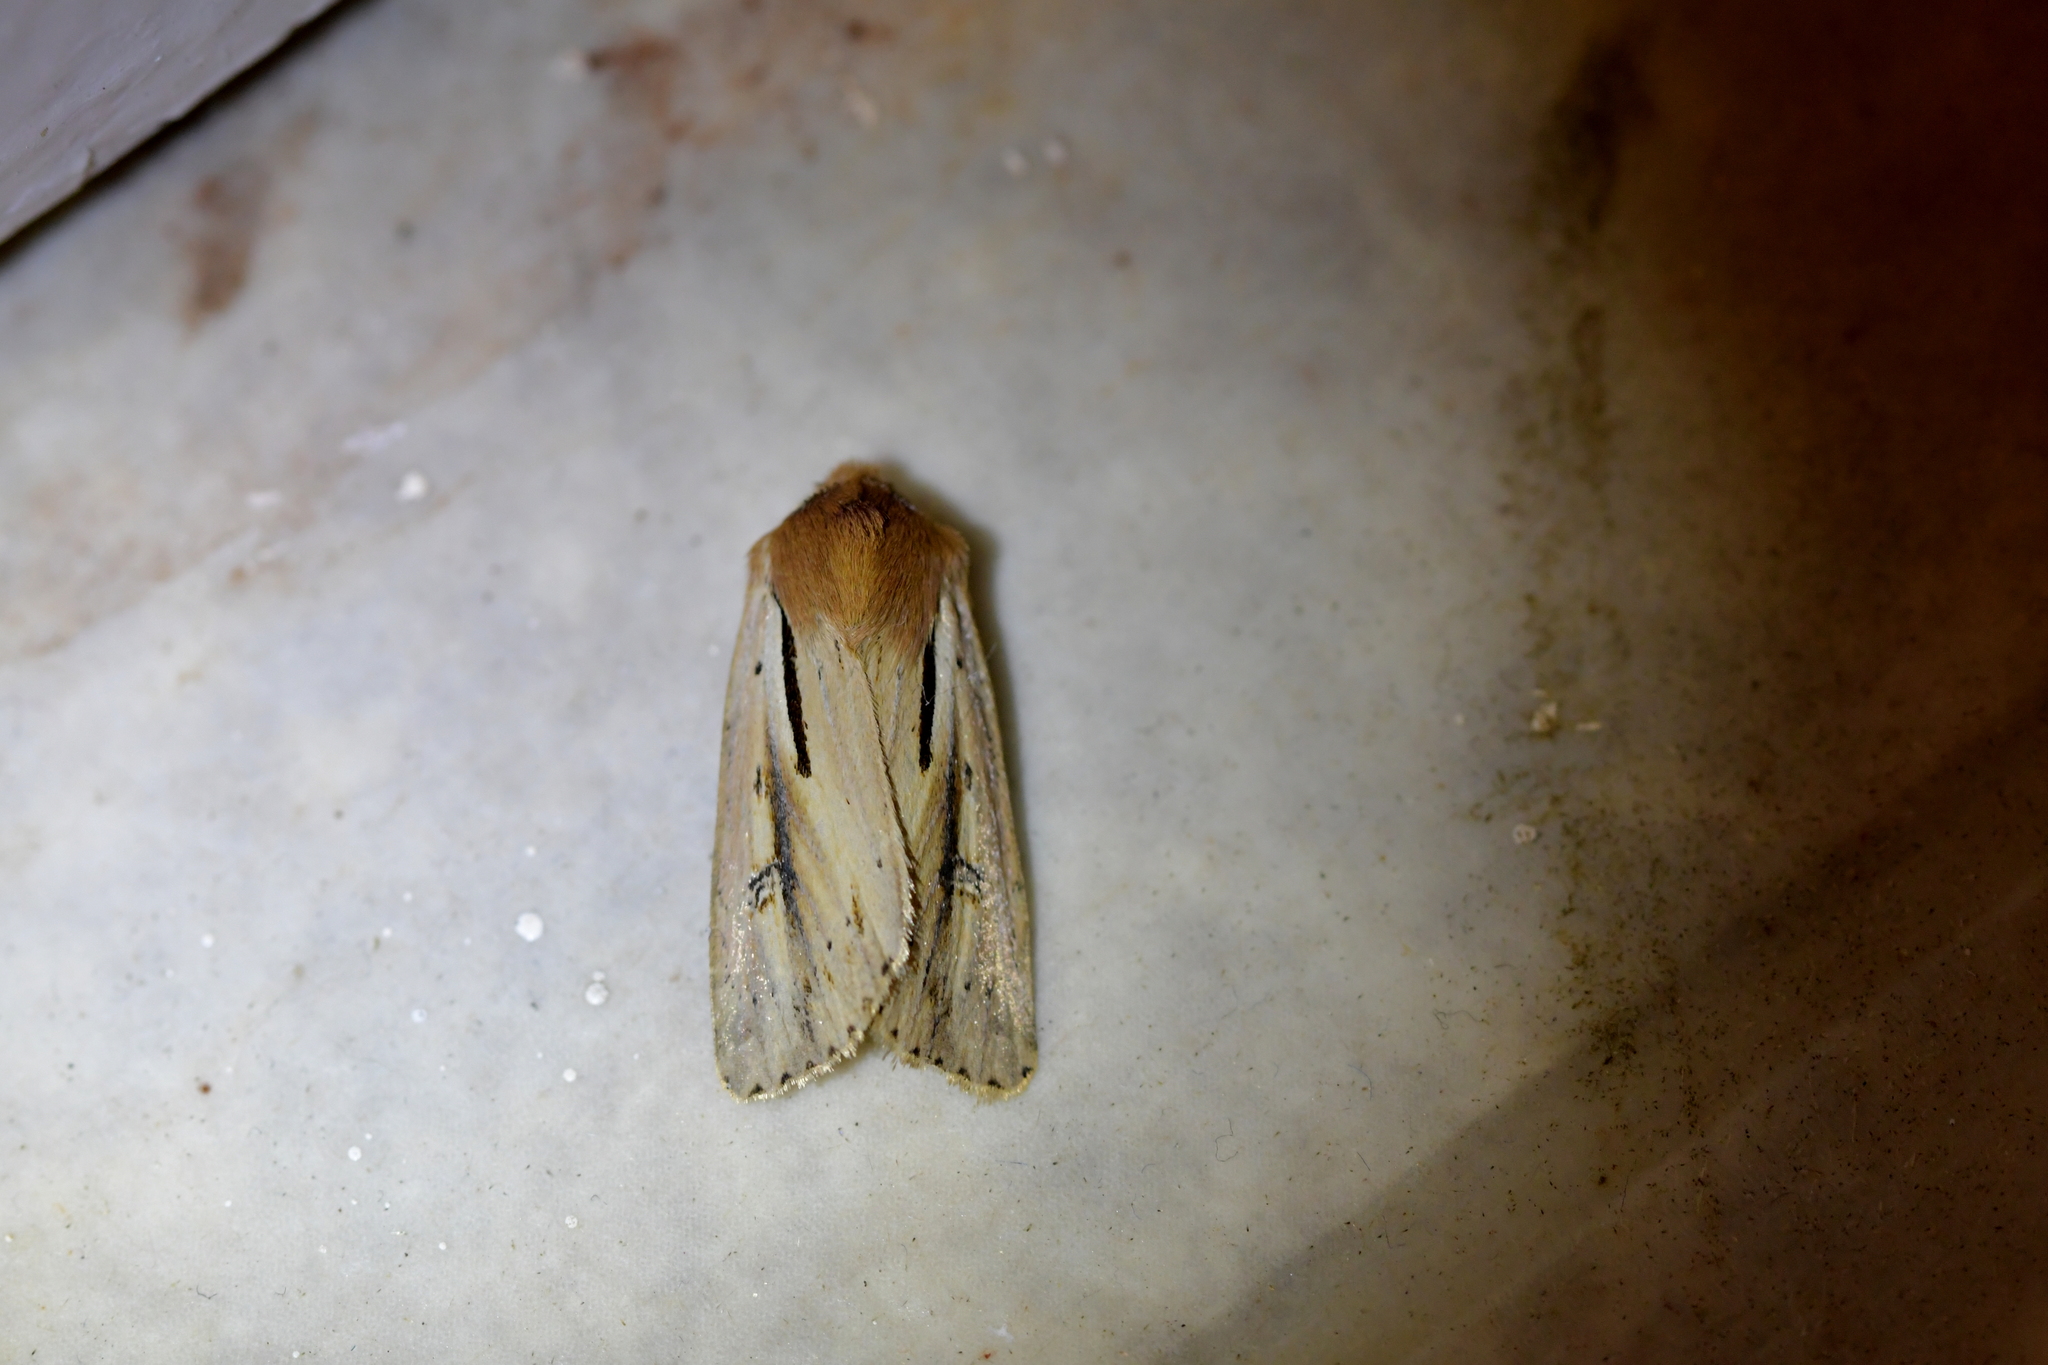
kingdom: Animalia
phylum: Arthropoda
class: Insecta
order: Lepidoptera
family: Noctuidae
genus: Ichneutica
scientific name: Ichneutica propria
